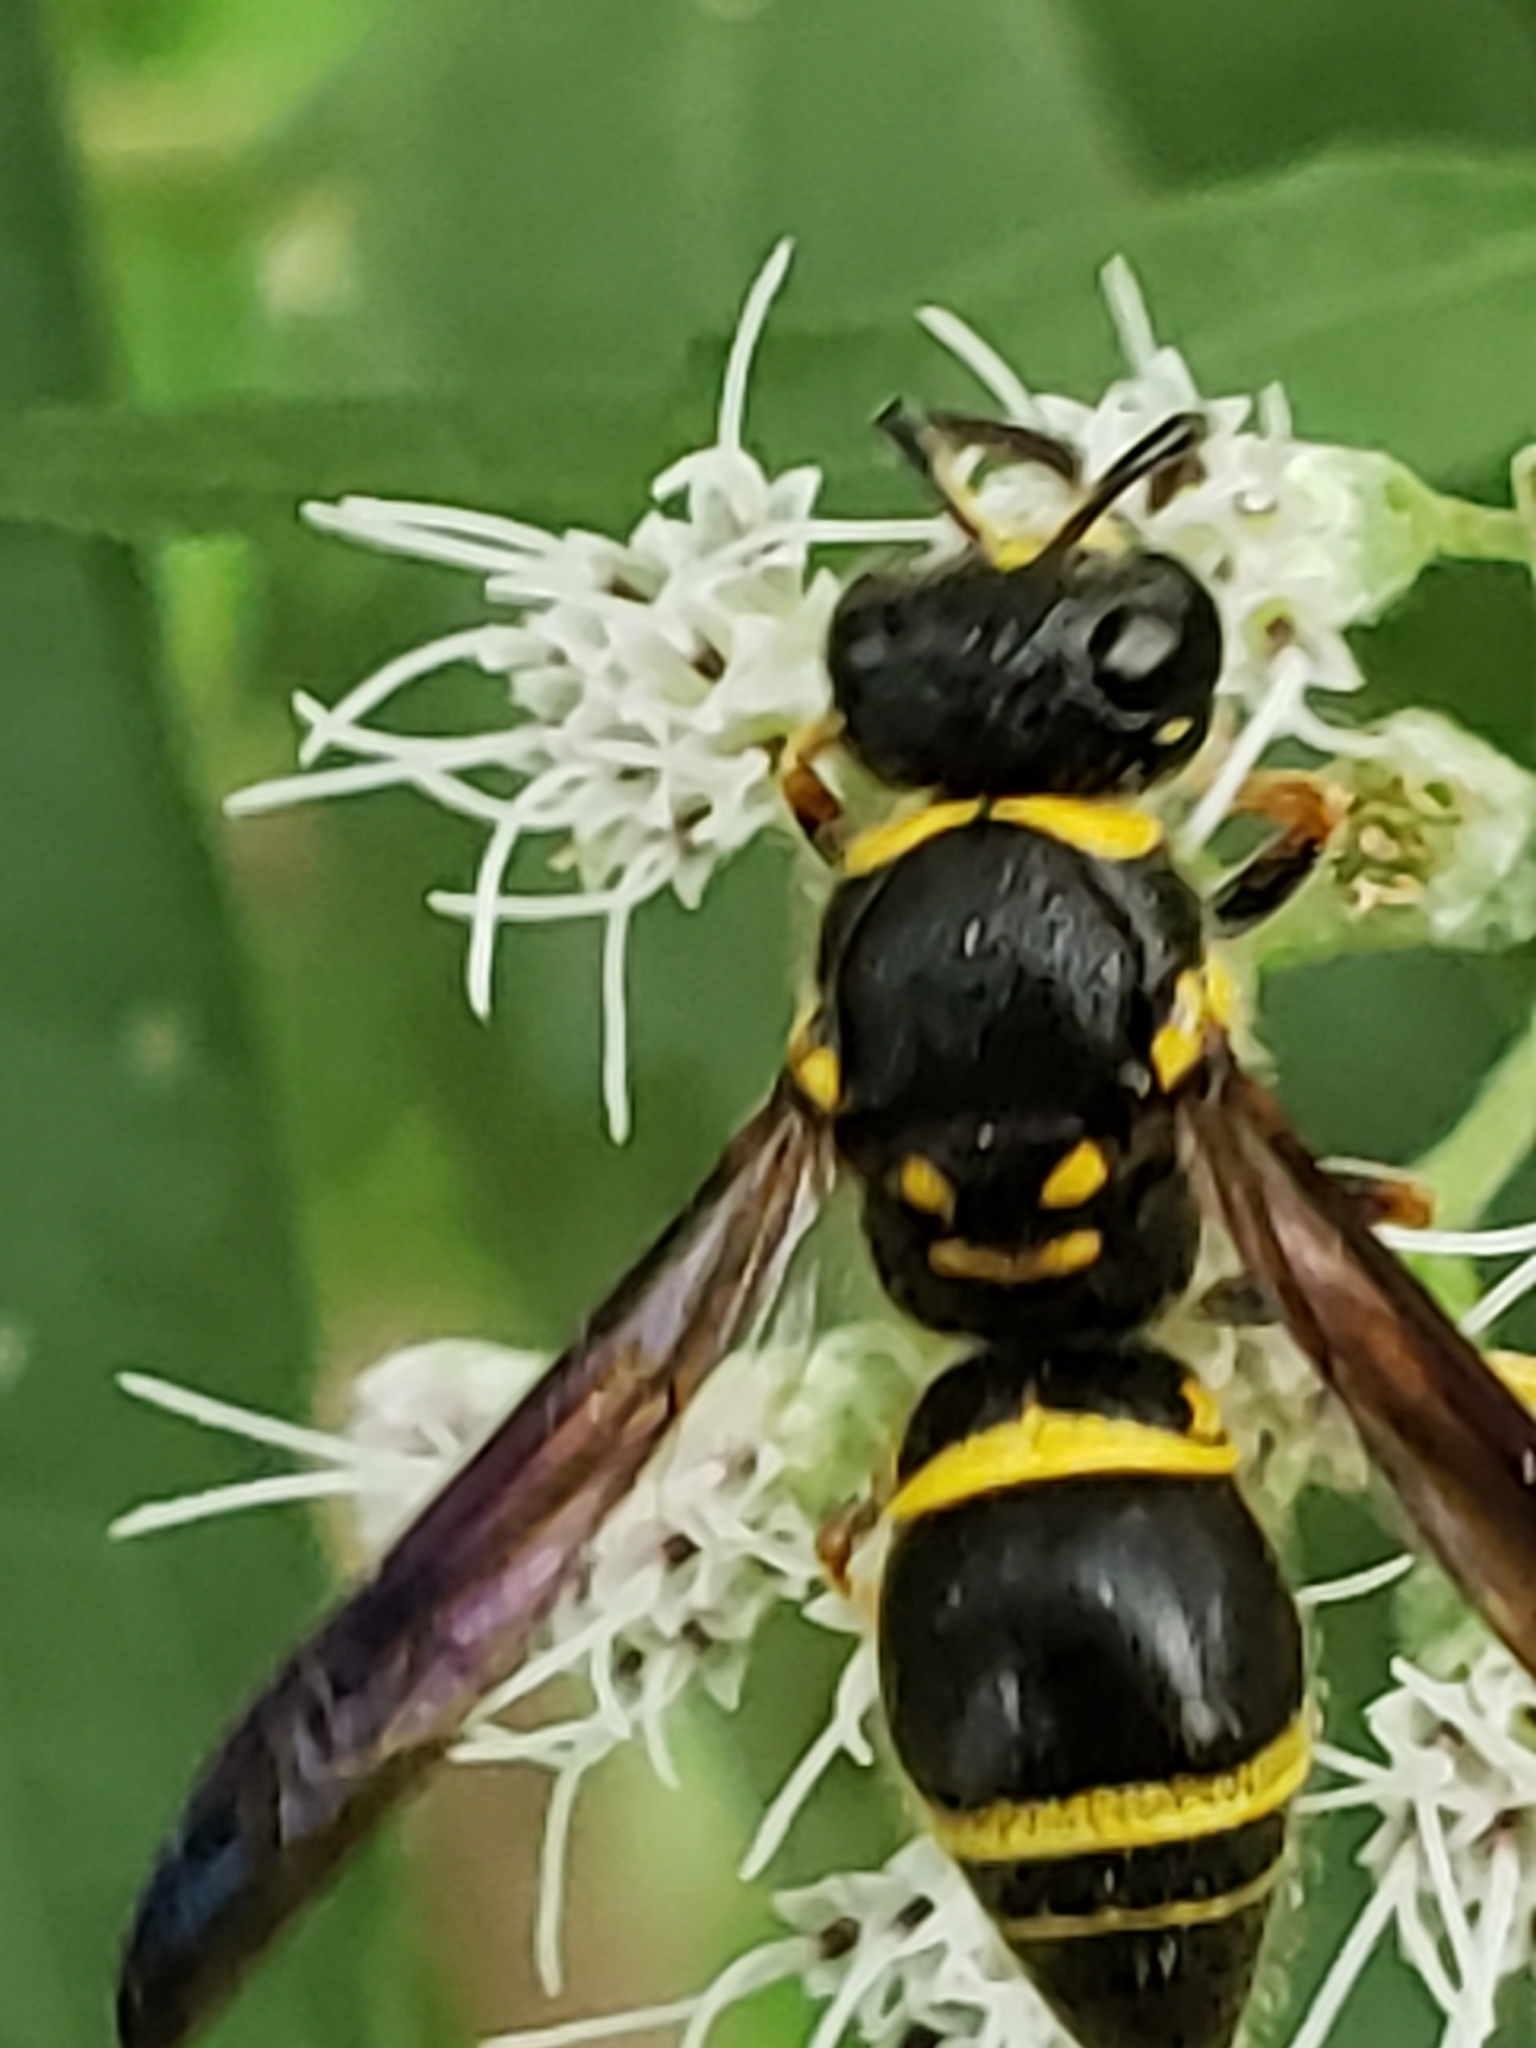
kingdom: Animalia
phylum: Arthropoda
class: Insecta
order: Hymenoptera
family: Vespidae
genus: Ancistrocerus
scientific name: Ancistrocerus campestris
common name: Smiling mason wasp
